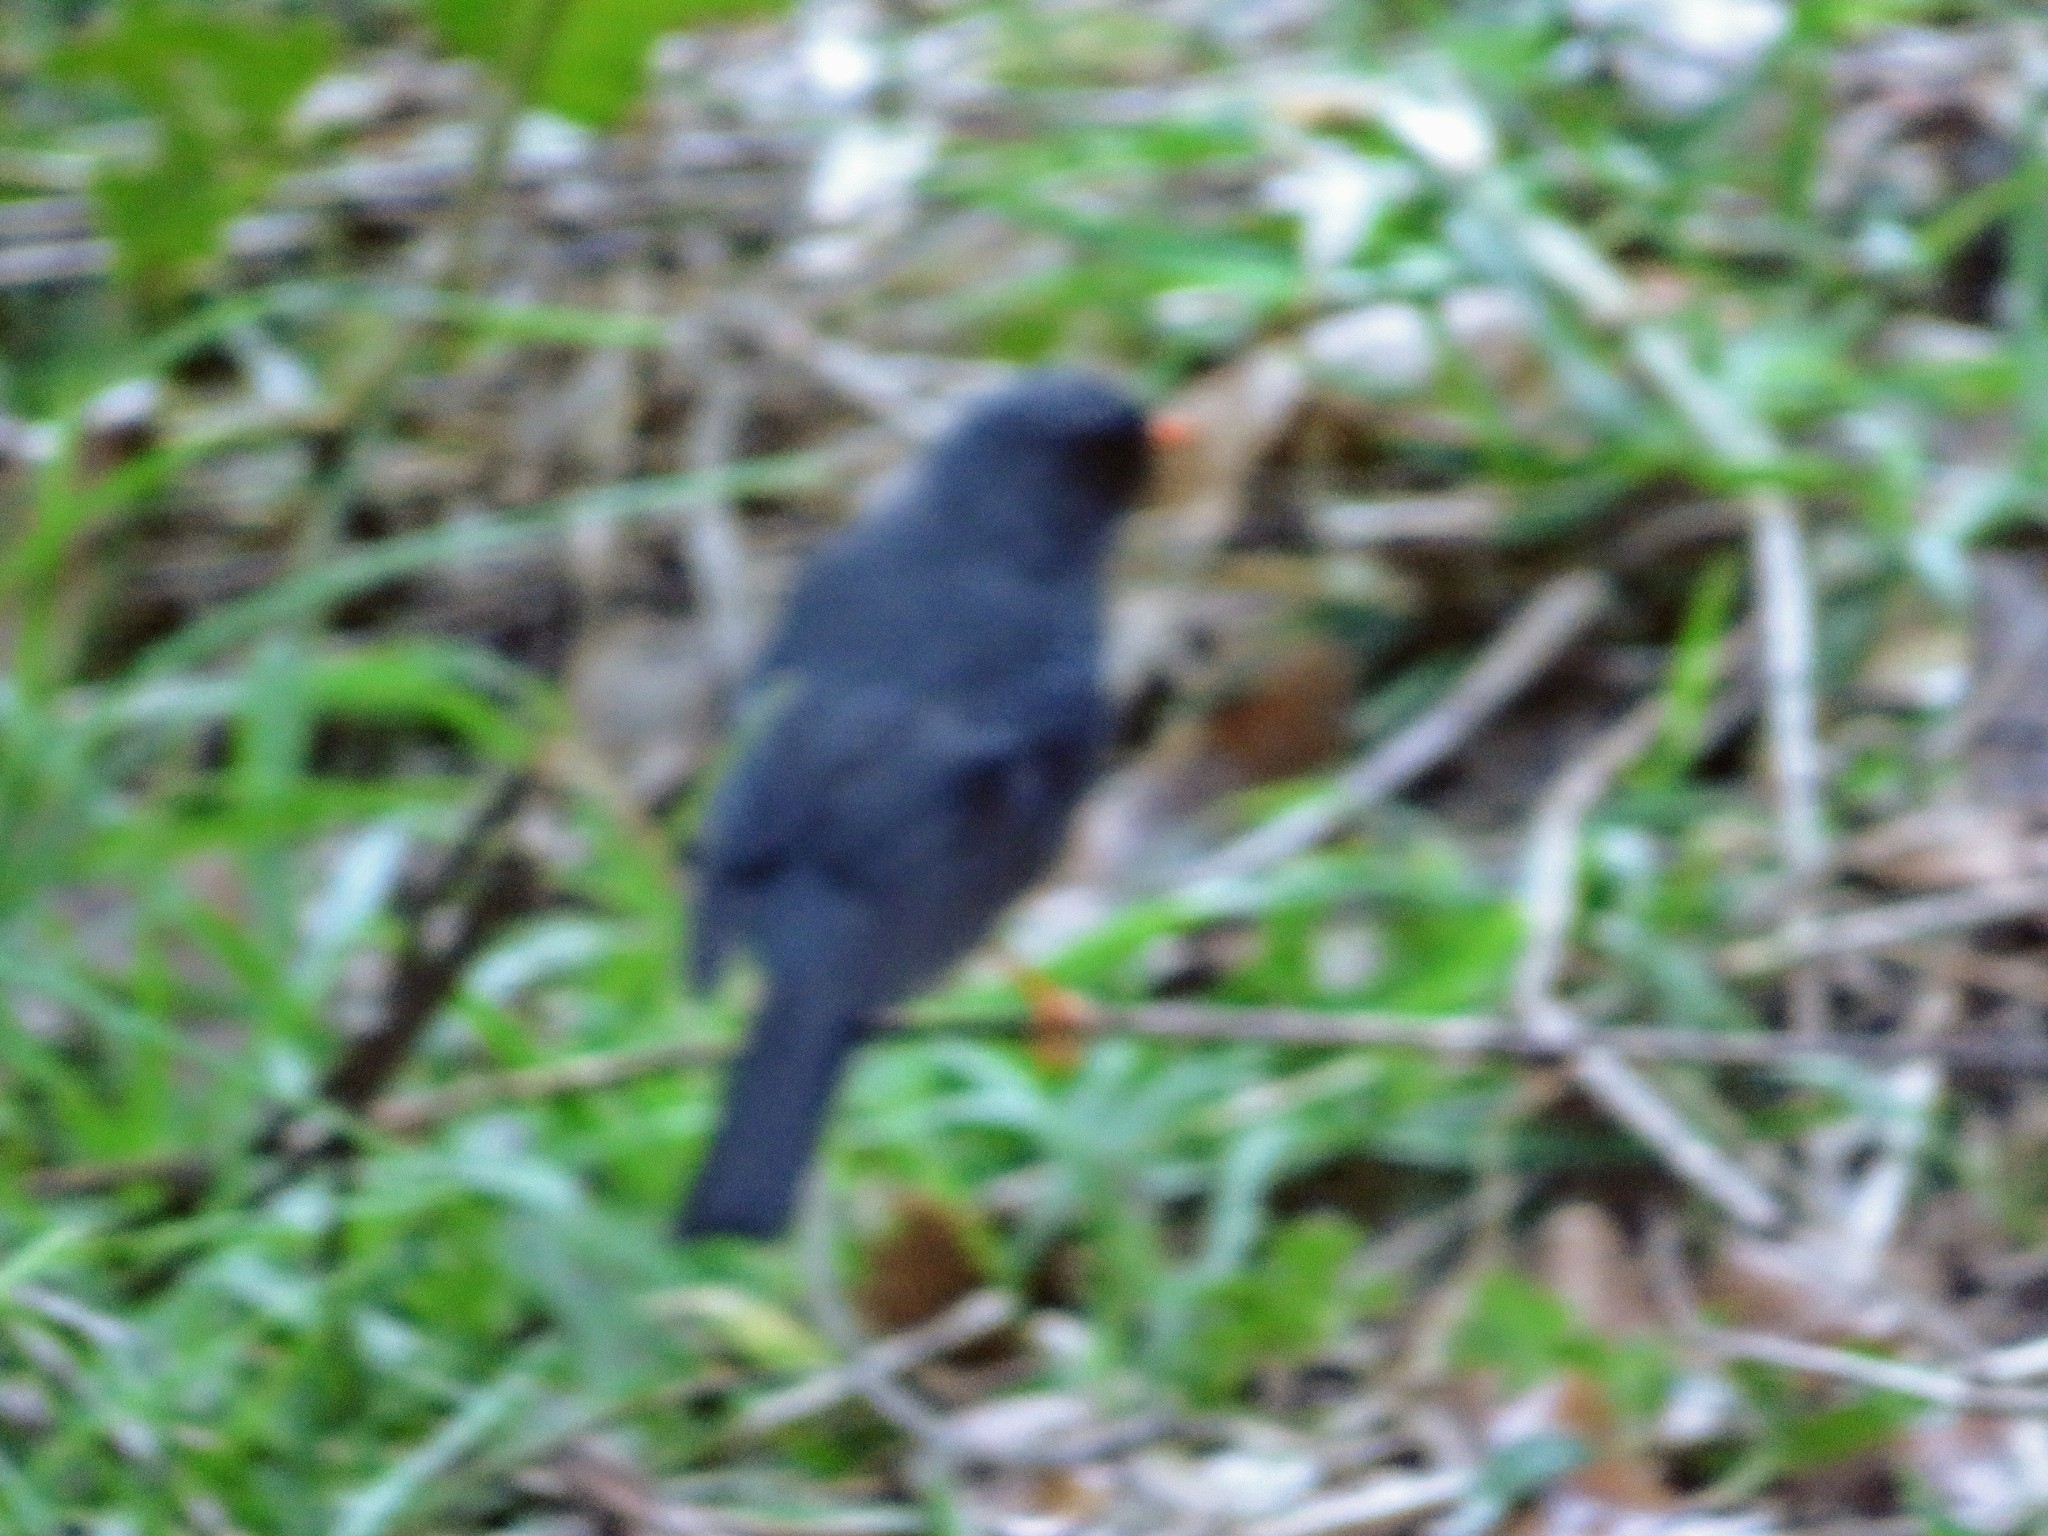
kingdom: Animalia
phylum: Chordata
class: Aves
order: Passeriformes
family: Turdidae
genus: Myadestes
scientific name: Myadestes melanops
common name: Black-faced solitaire
